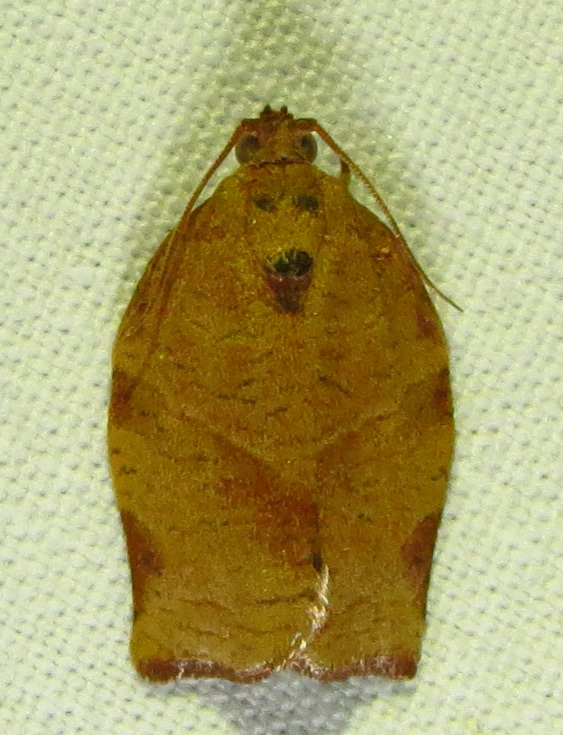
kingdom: Animalia
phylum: Arthropoda
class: Insecta
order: Lepidoptera
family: Tortricidae
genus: Choristoneura
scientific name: Choristoneura rosaceana
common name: Oblique-banded leafroller moth
